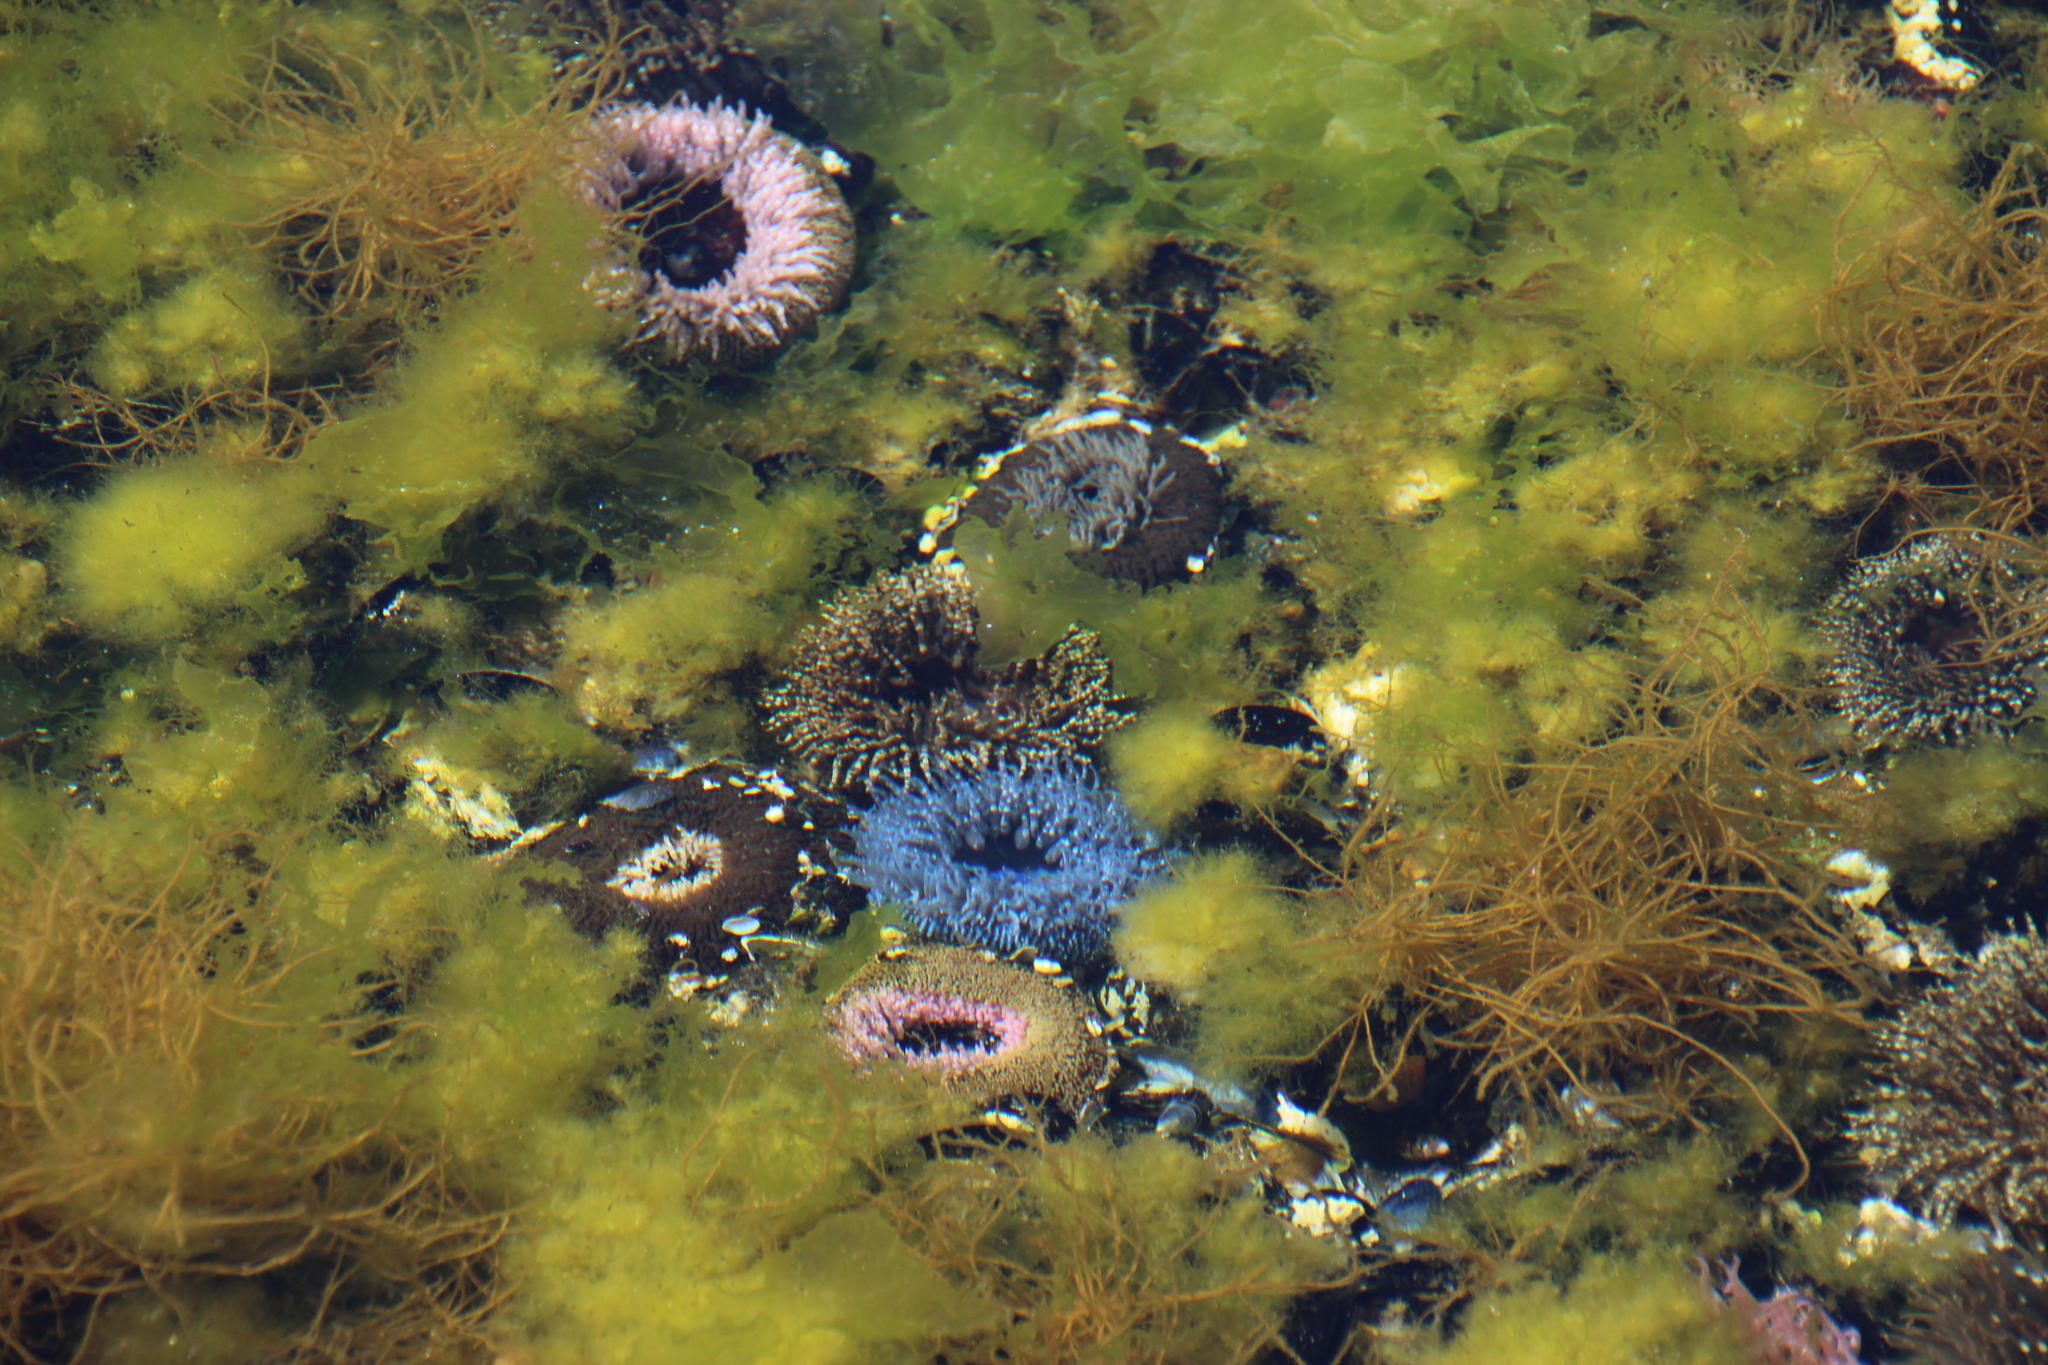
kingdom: Animalia
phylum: Cnidaria
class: Anthozoa
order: Actiniaria
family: Actiniidae
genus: Bunodactis
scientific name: Bunodactis reynaudi
